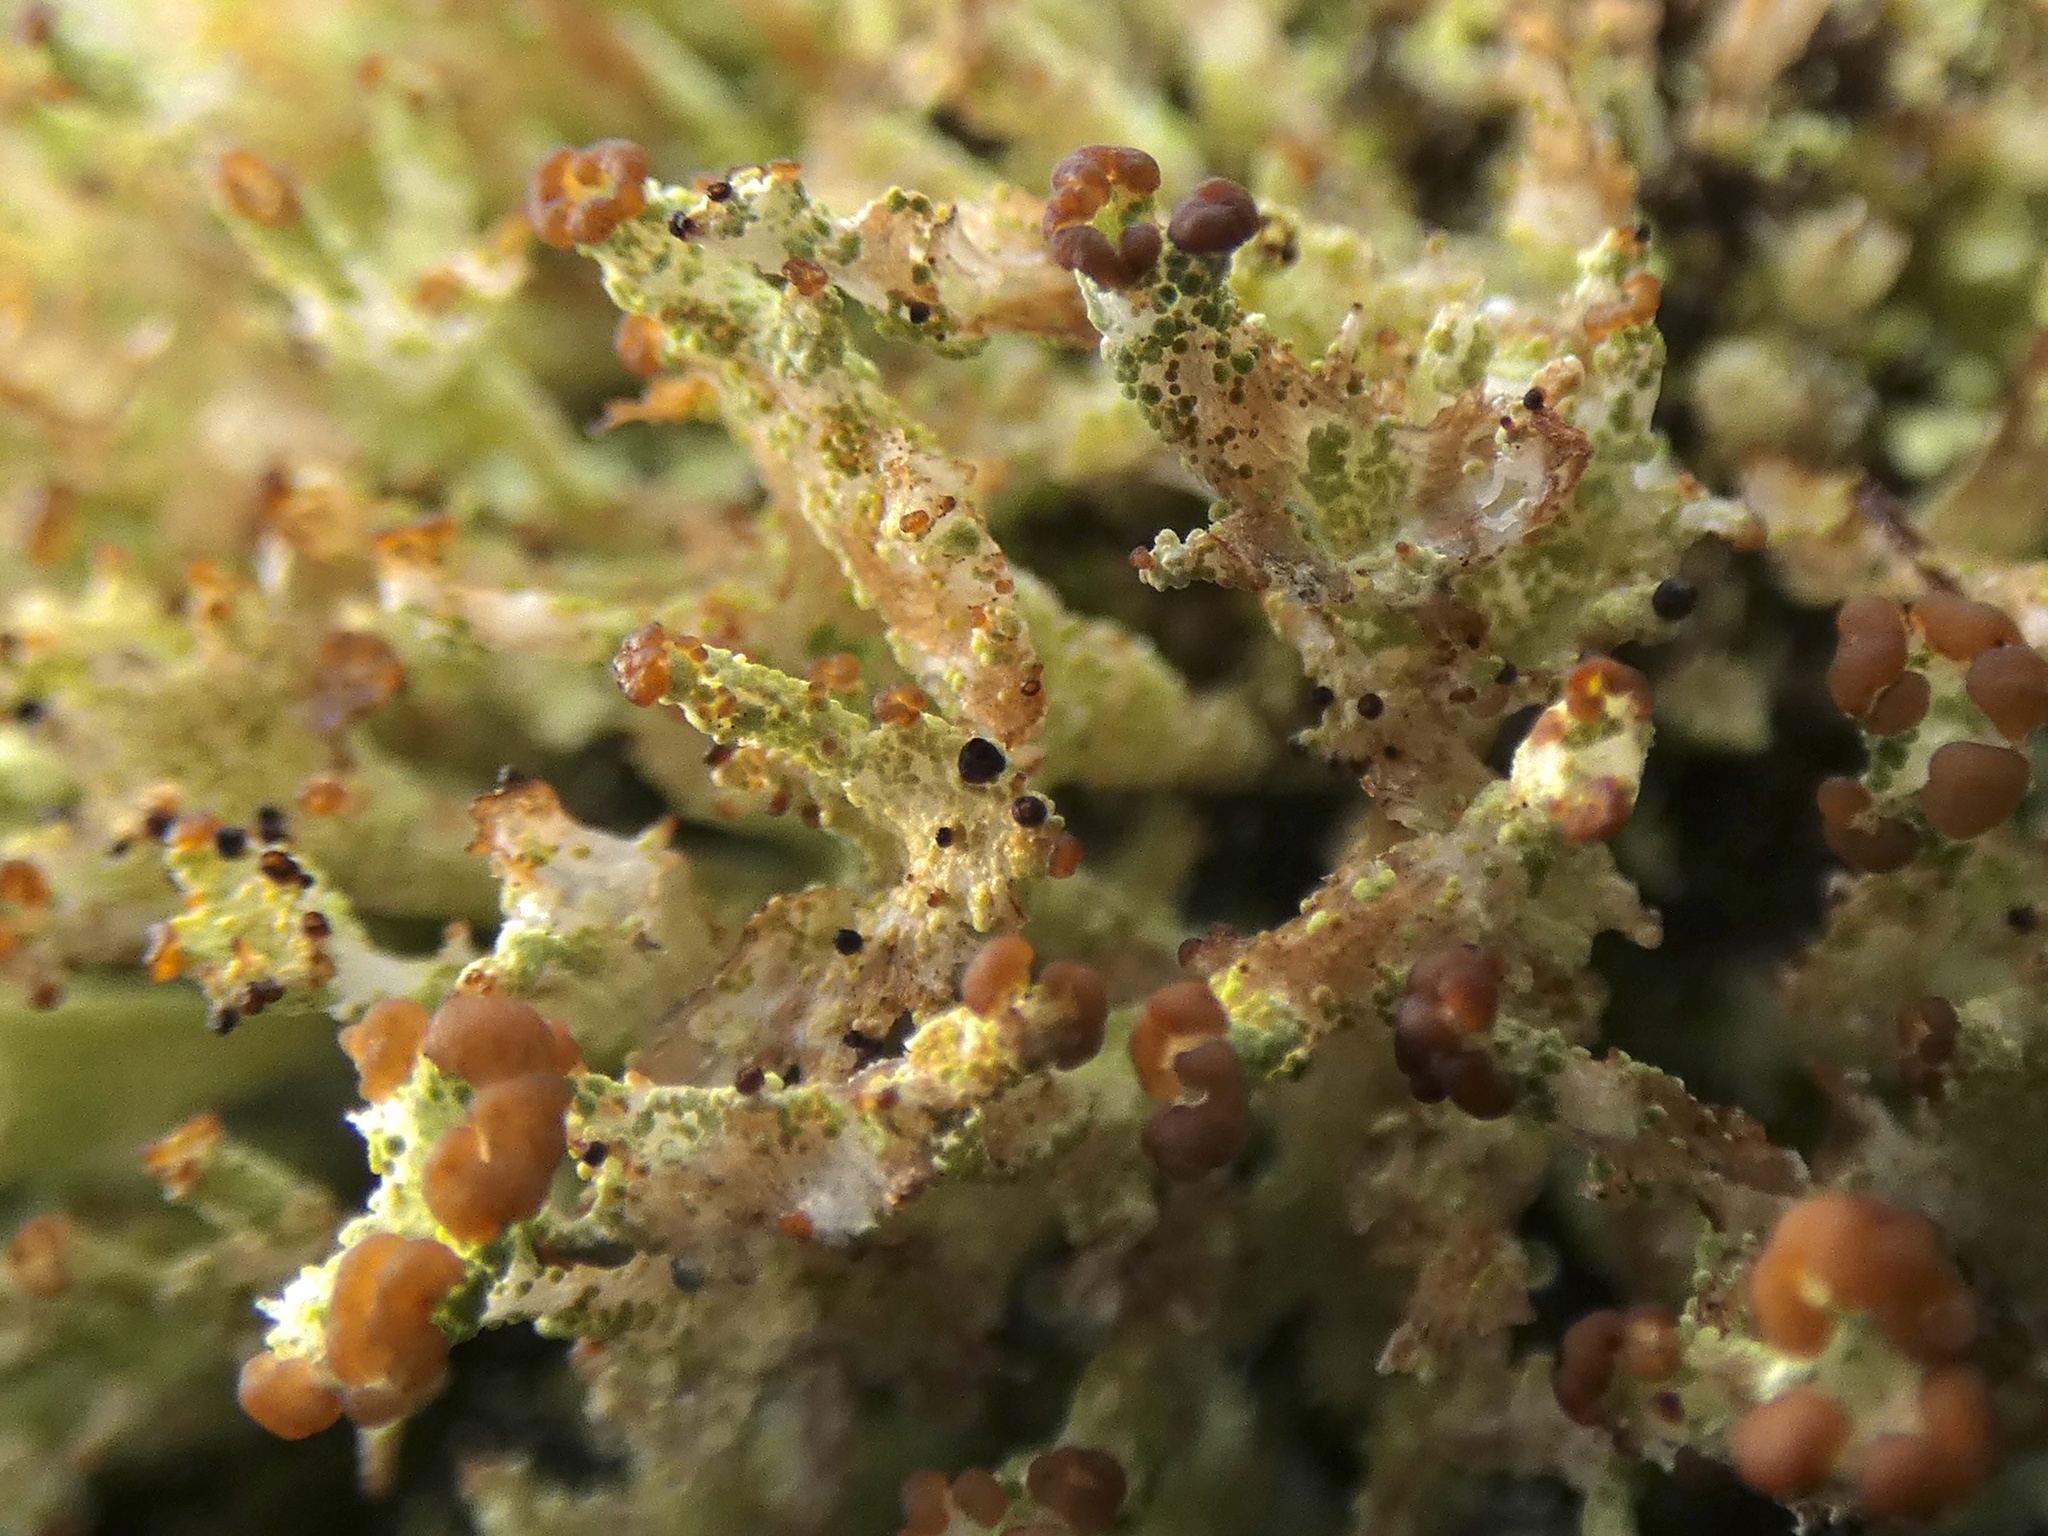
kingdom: Fungi
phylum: Ascomycota
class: Lecanoromycetes
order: Lecanorales
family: Cladoniaceae
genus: Cladonia
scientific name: Cladonia ramulosa
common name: Branched pixie-cup lichen
